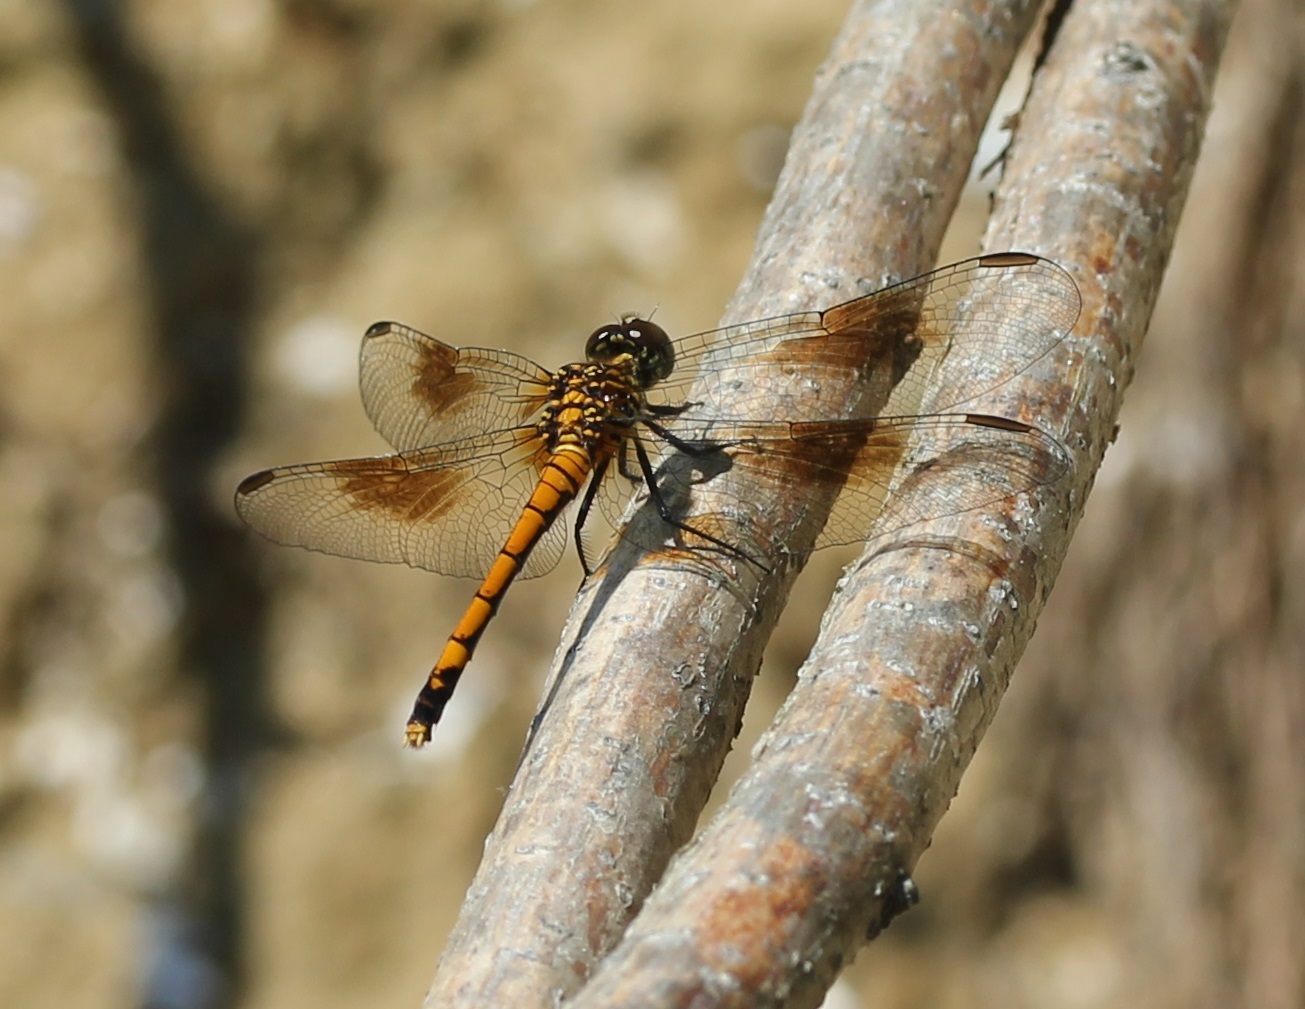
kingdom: Animalia
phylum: Arthropoda
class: Insecta
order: Odonata
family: Libellulidae
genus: Erythrodiplax
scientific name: Erythrodiplax berenice
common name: Seaside dragonlet
